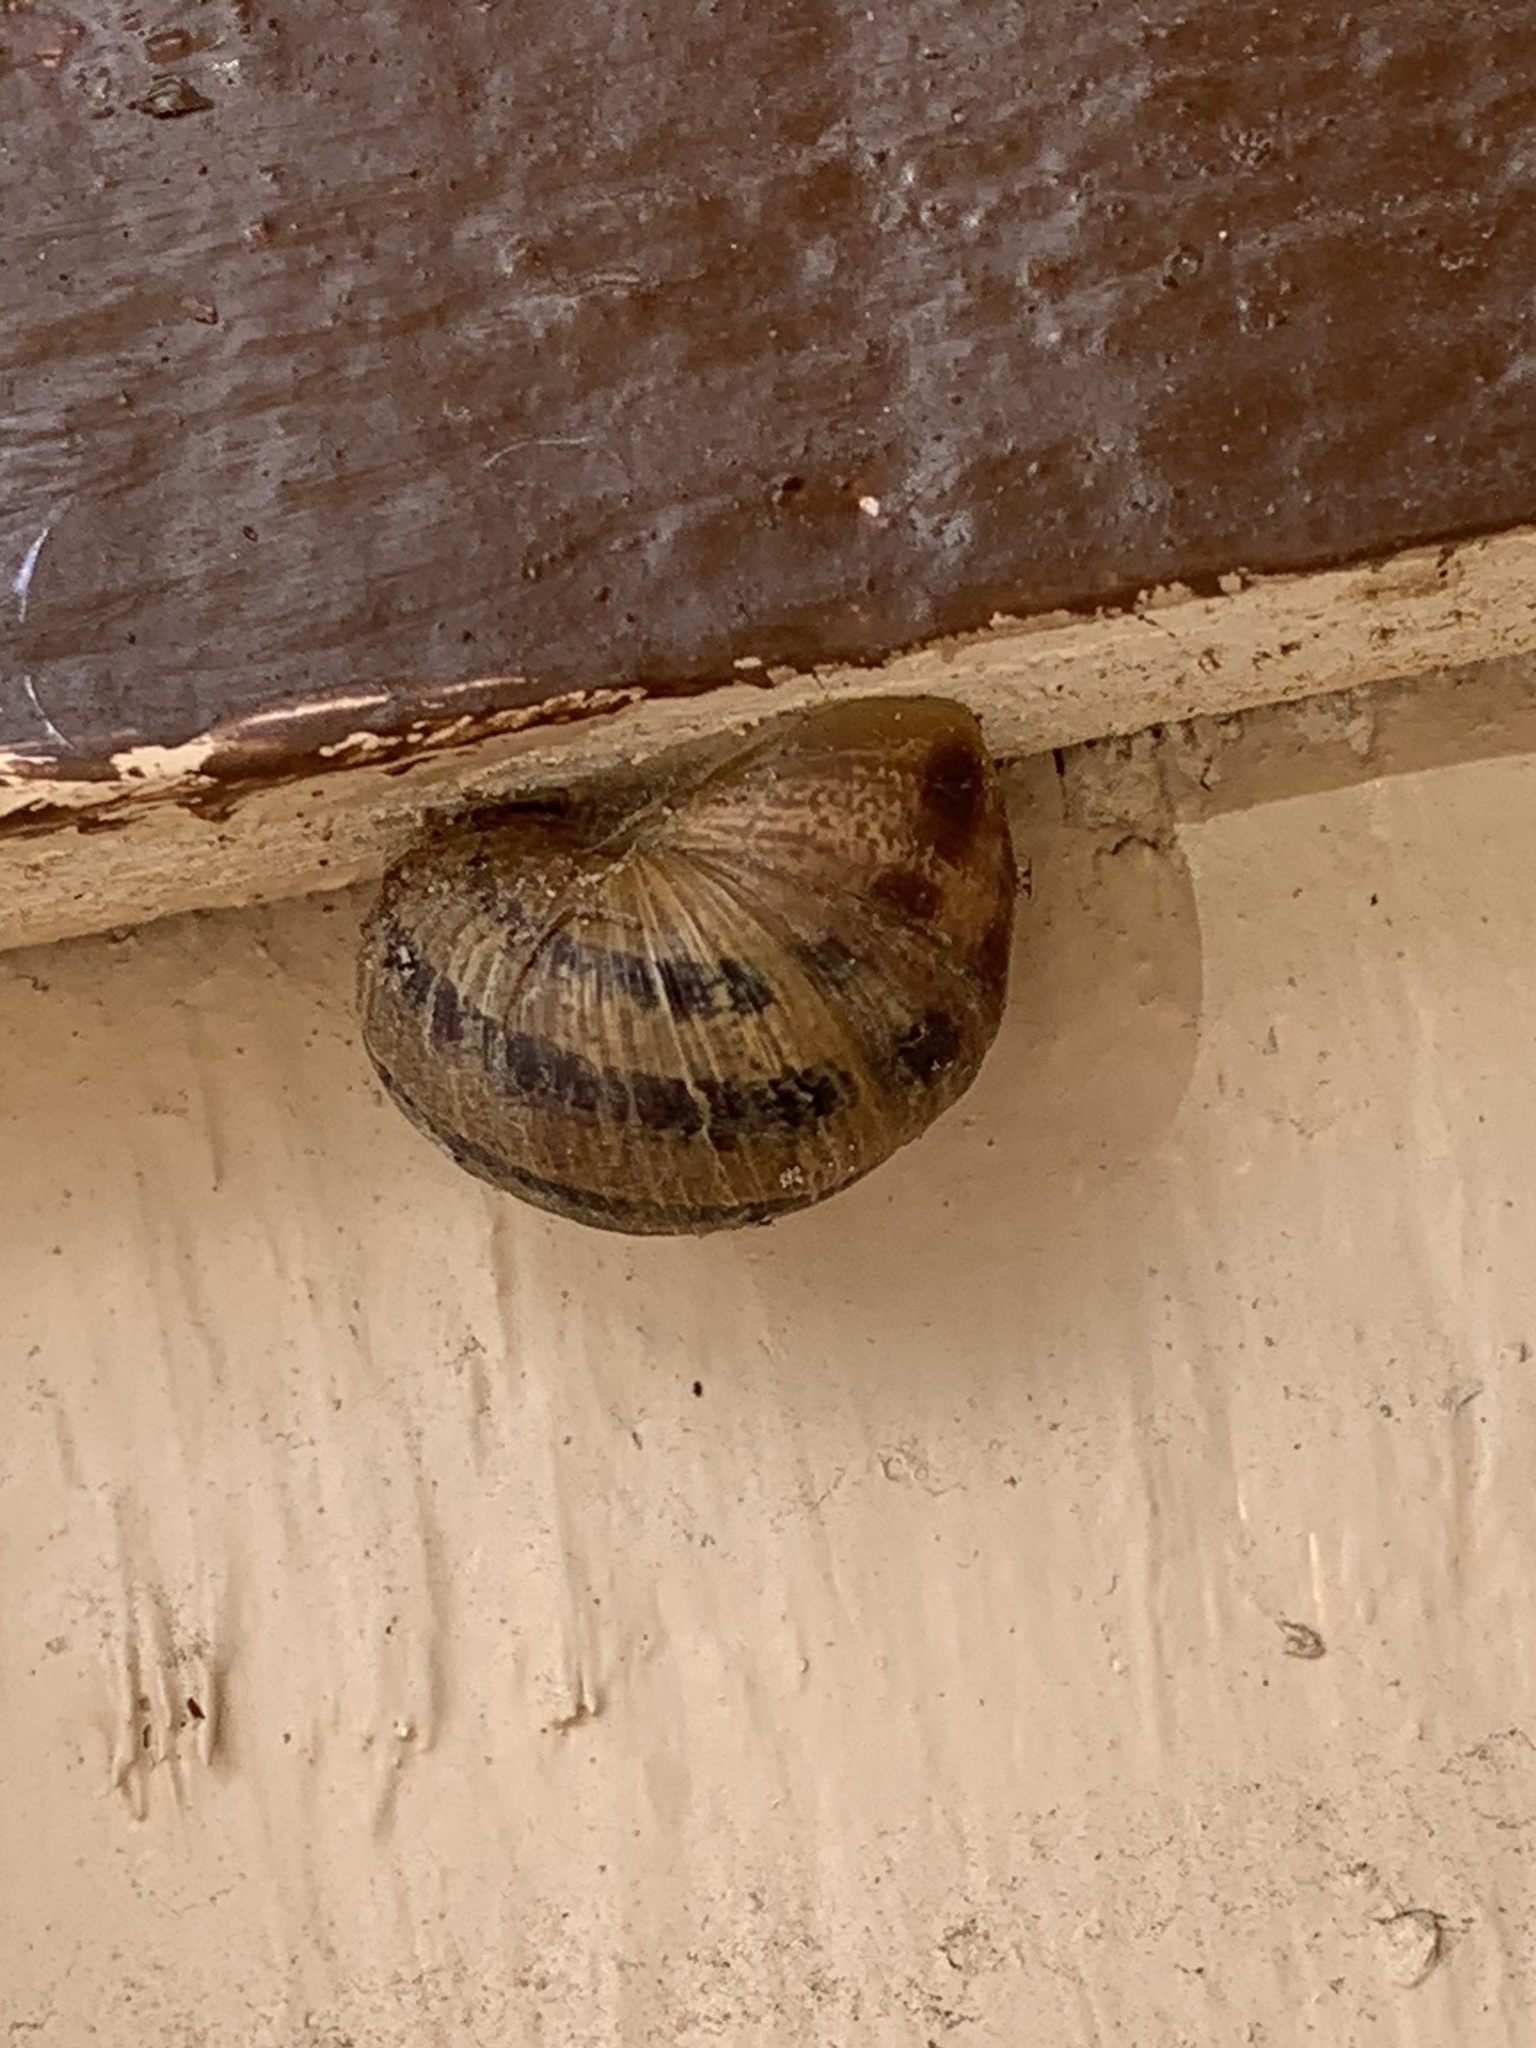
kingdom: Animalia
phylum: Mollusca
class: Gastropoda
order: Stylommatophora
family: Helicidae
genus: Cornu
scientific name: Cornu aspersum
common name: Brown garden snail
